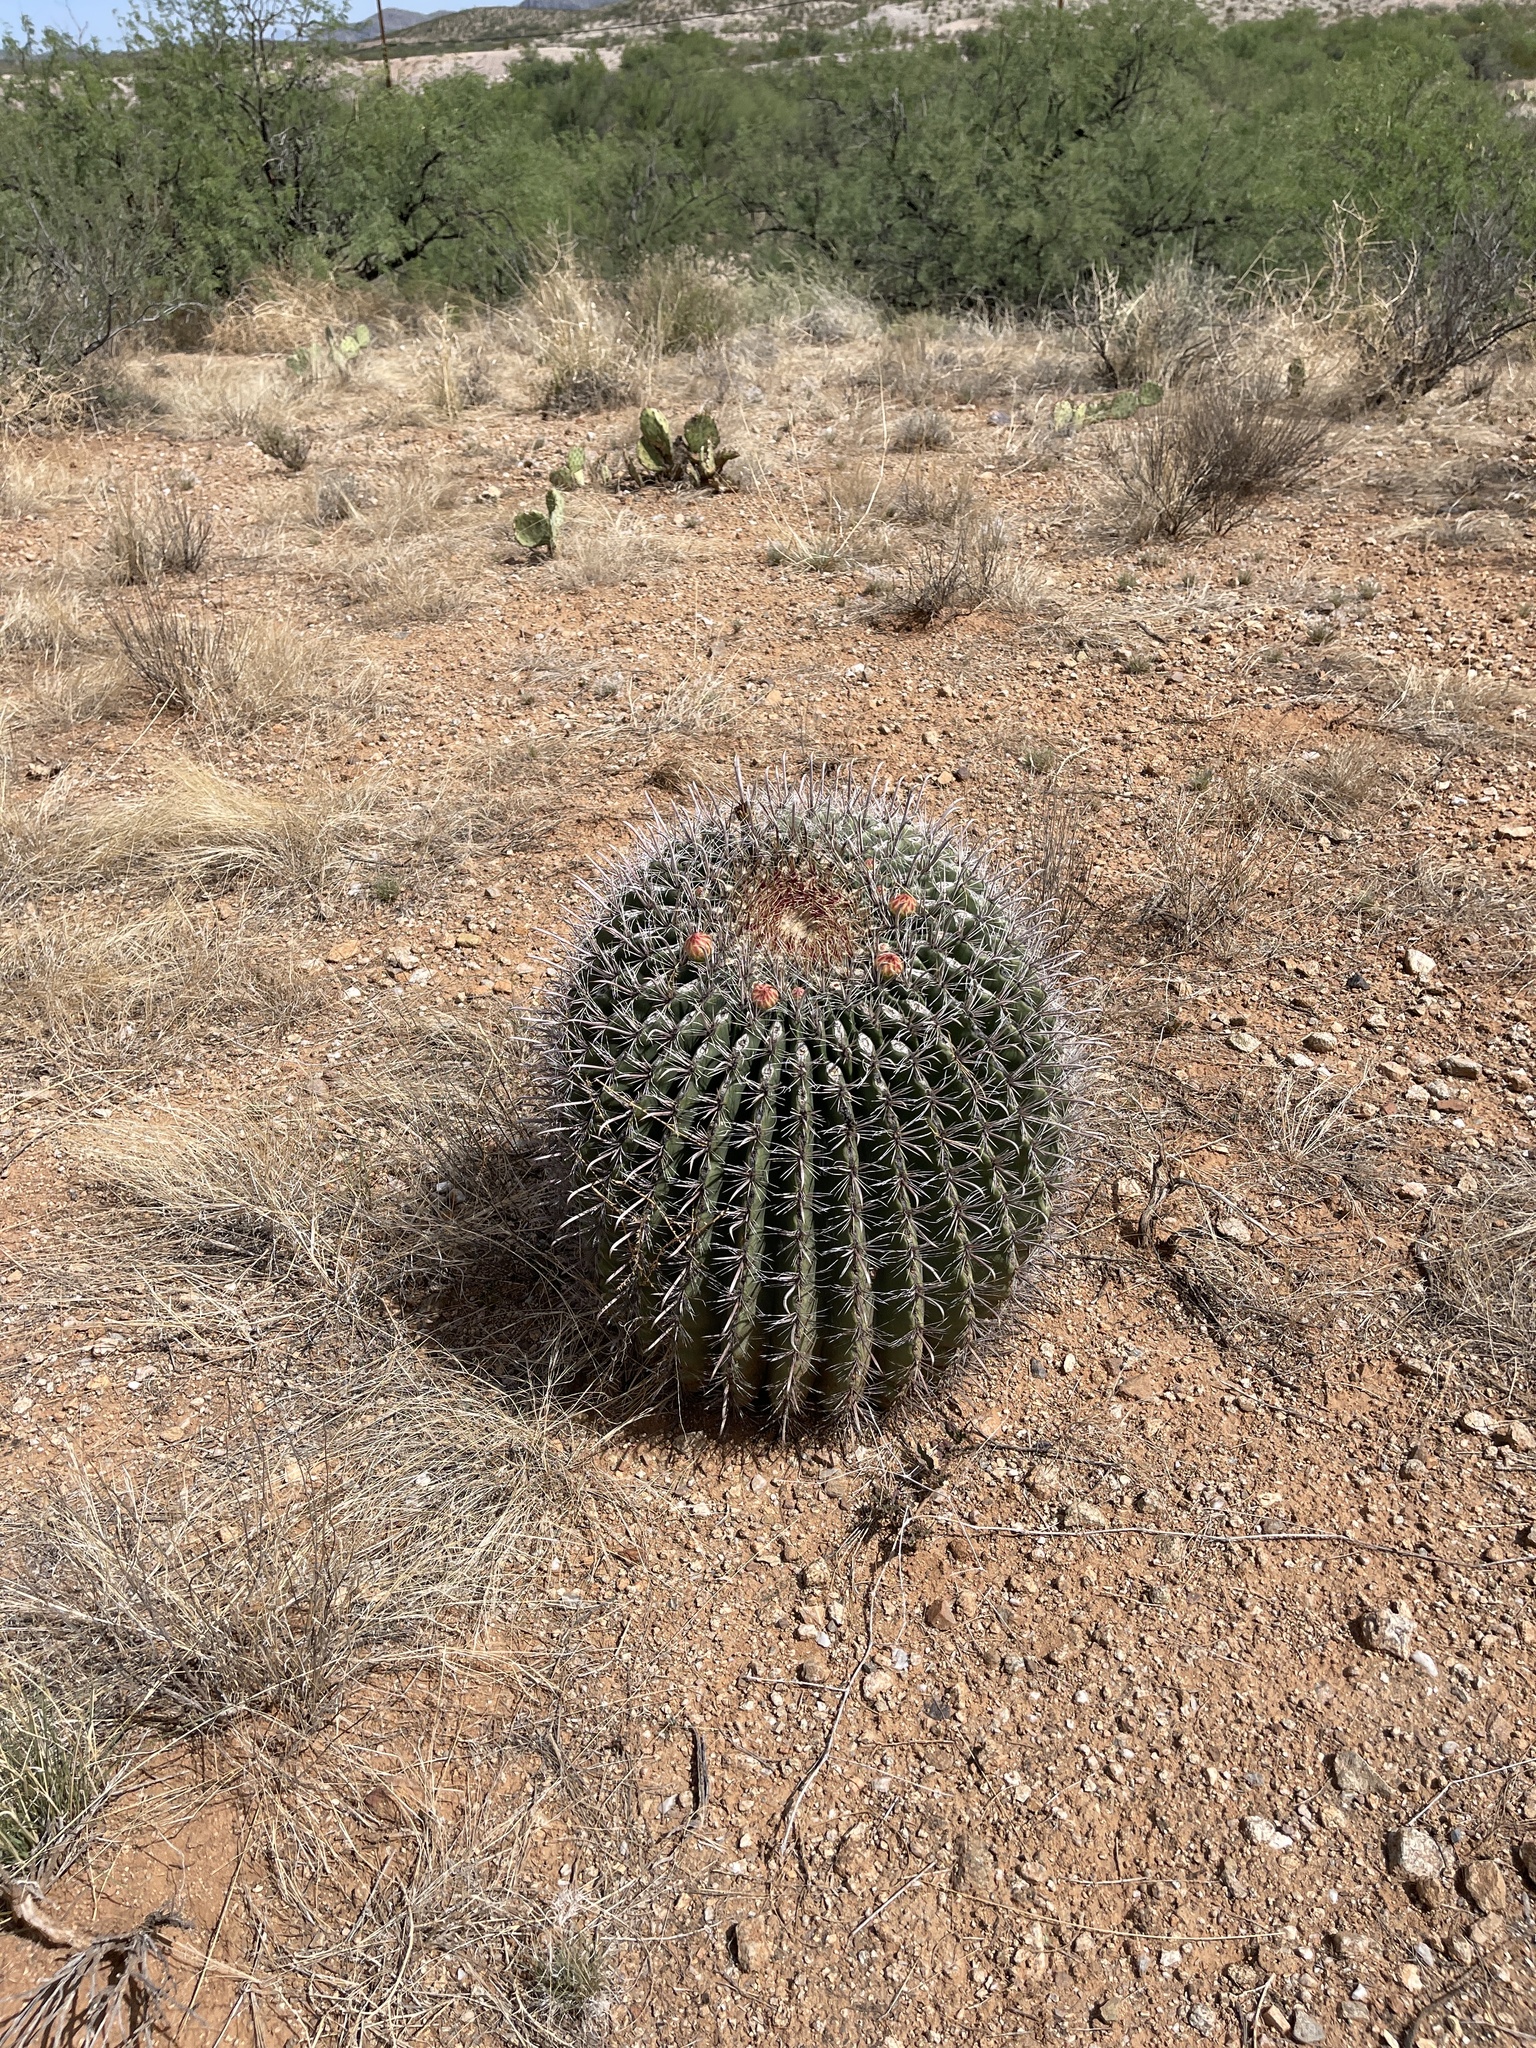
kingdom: Plantae
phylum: Tracheophyta
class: Magnoliopsida
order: Caryophyllales
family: Cactaceae
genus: Ferocactus
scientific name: Ferocactus wislizeni
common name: Candy barrel cactus
